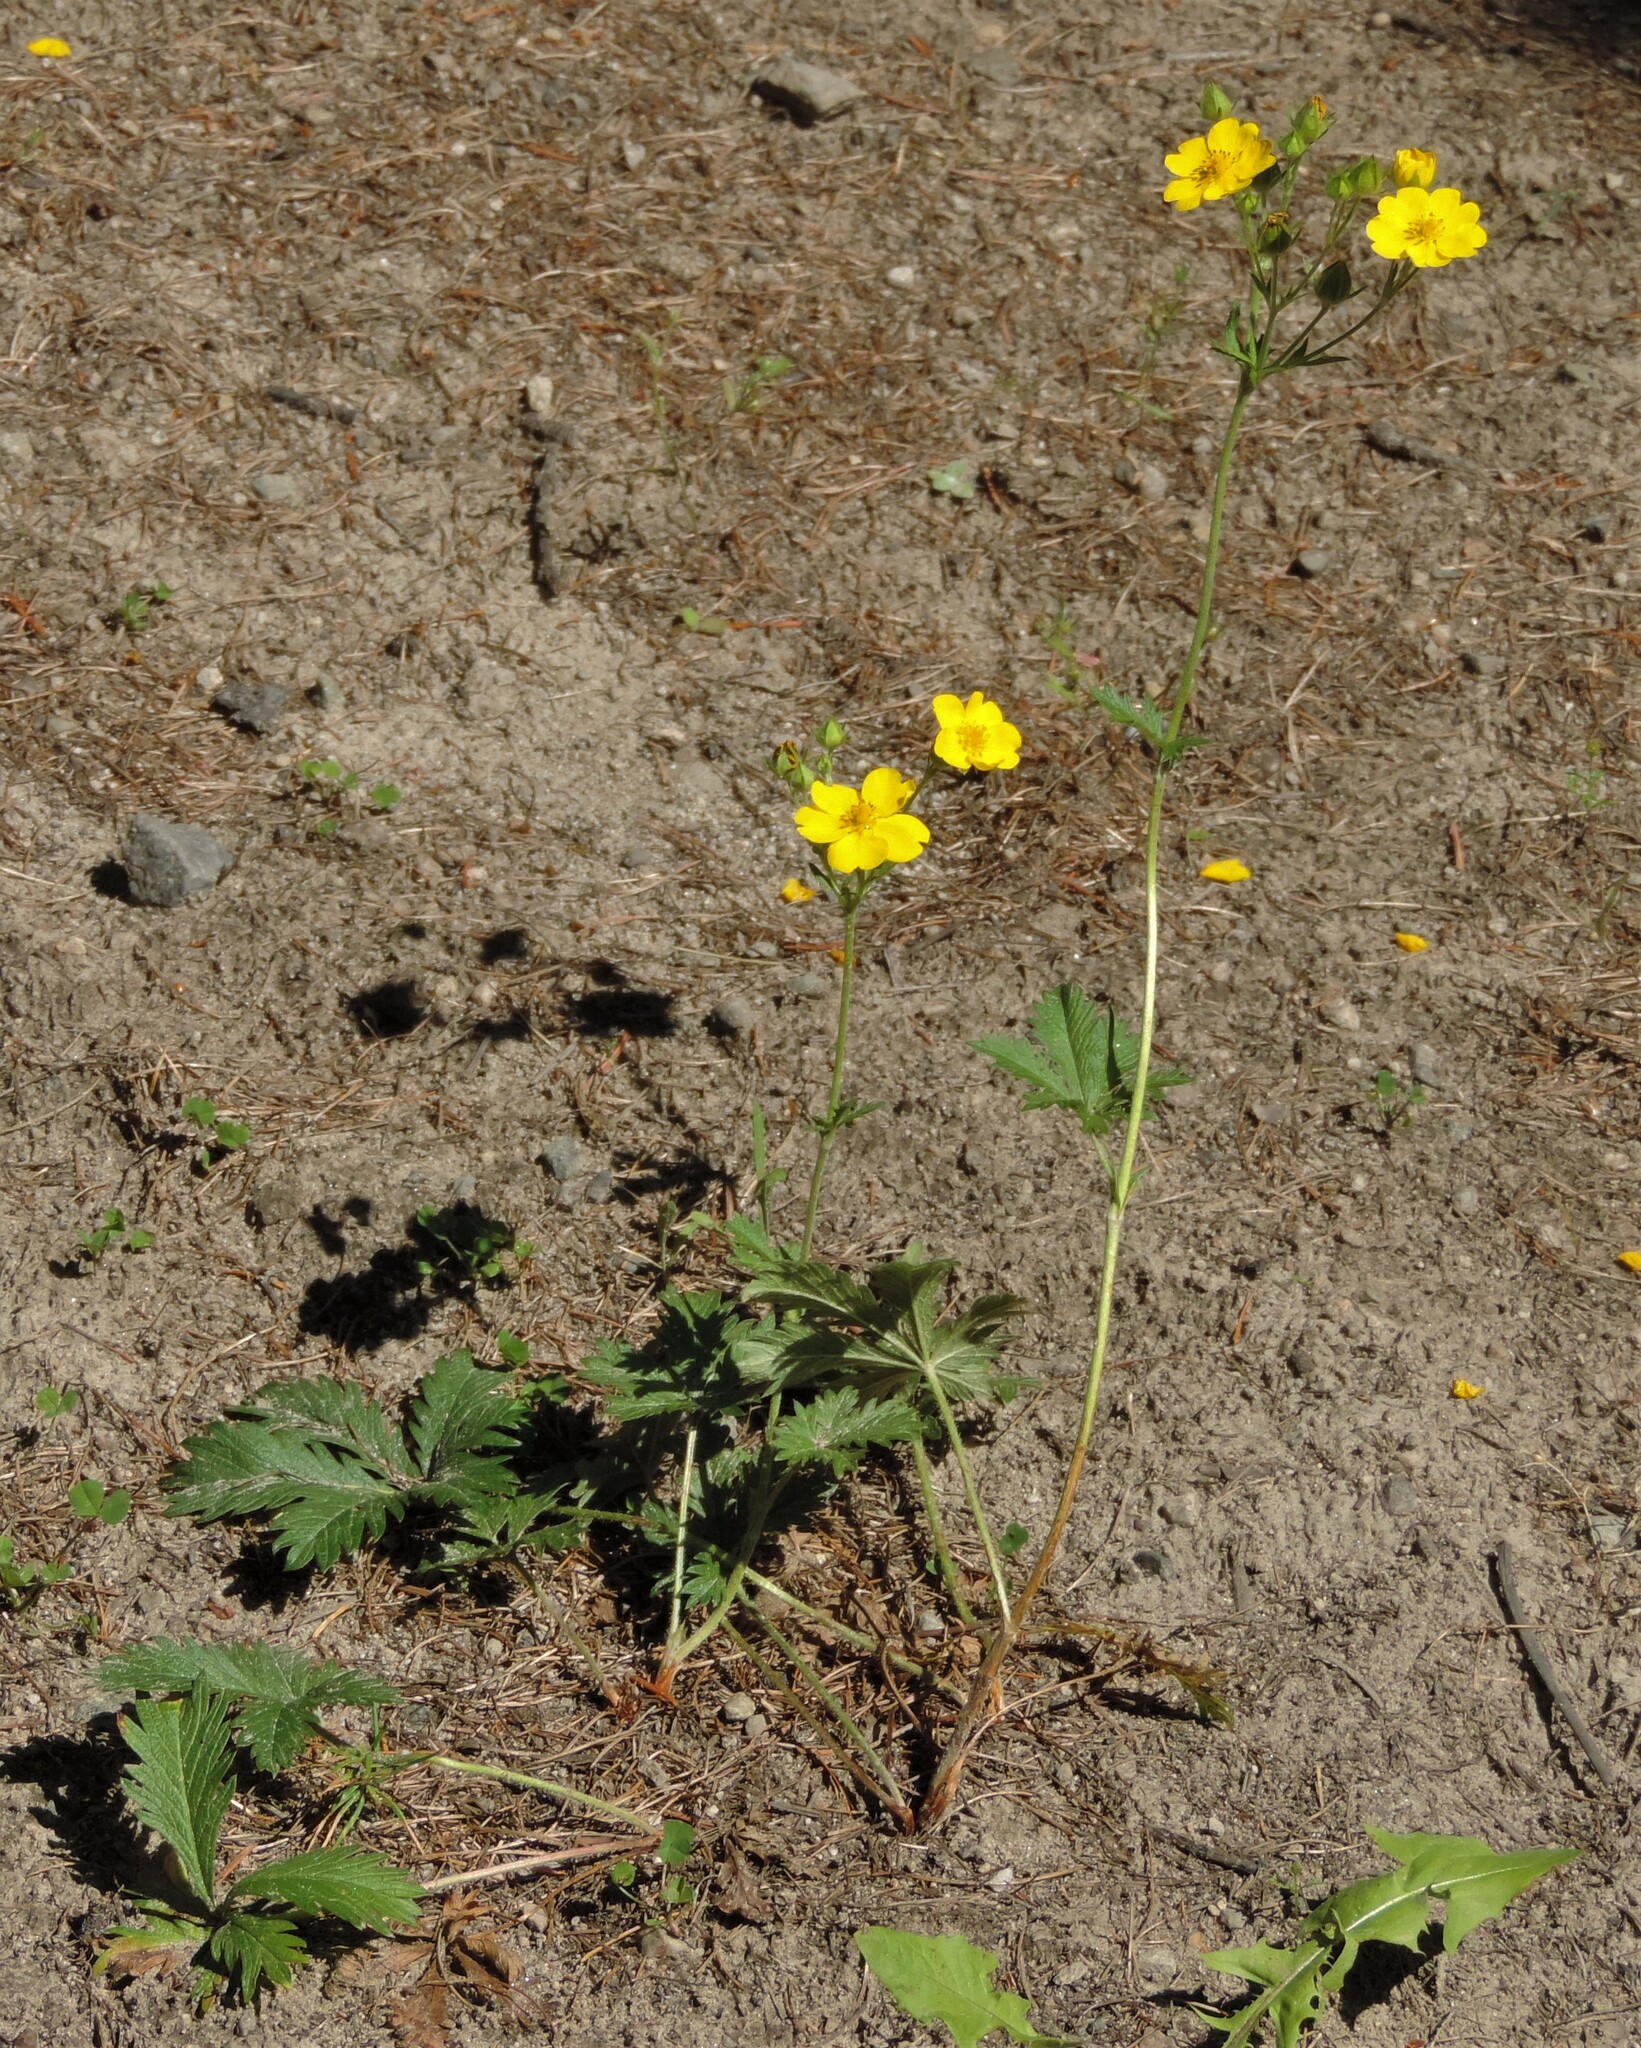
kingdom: Plantae
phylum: Tracheophyta
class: Magnoliopsida
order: Rosales
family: Rosaceae
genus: Potentilla
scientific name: Potentilla gracilis
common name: Graceful cinquefoil
